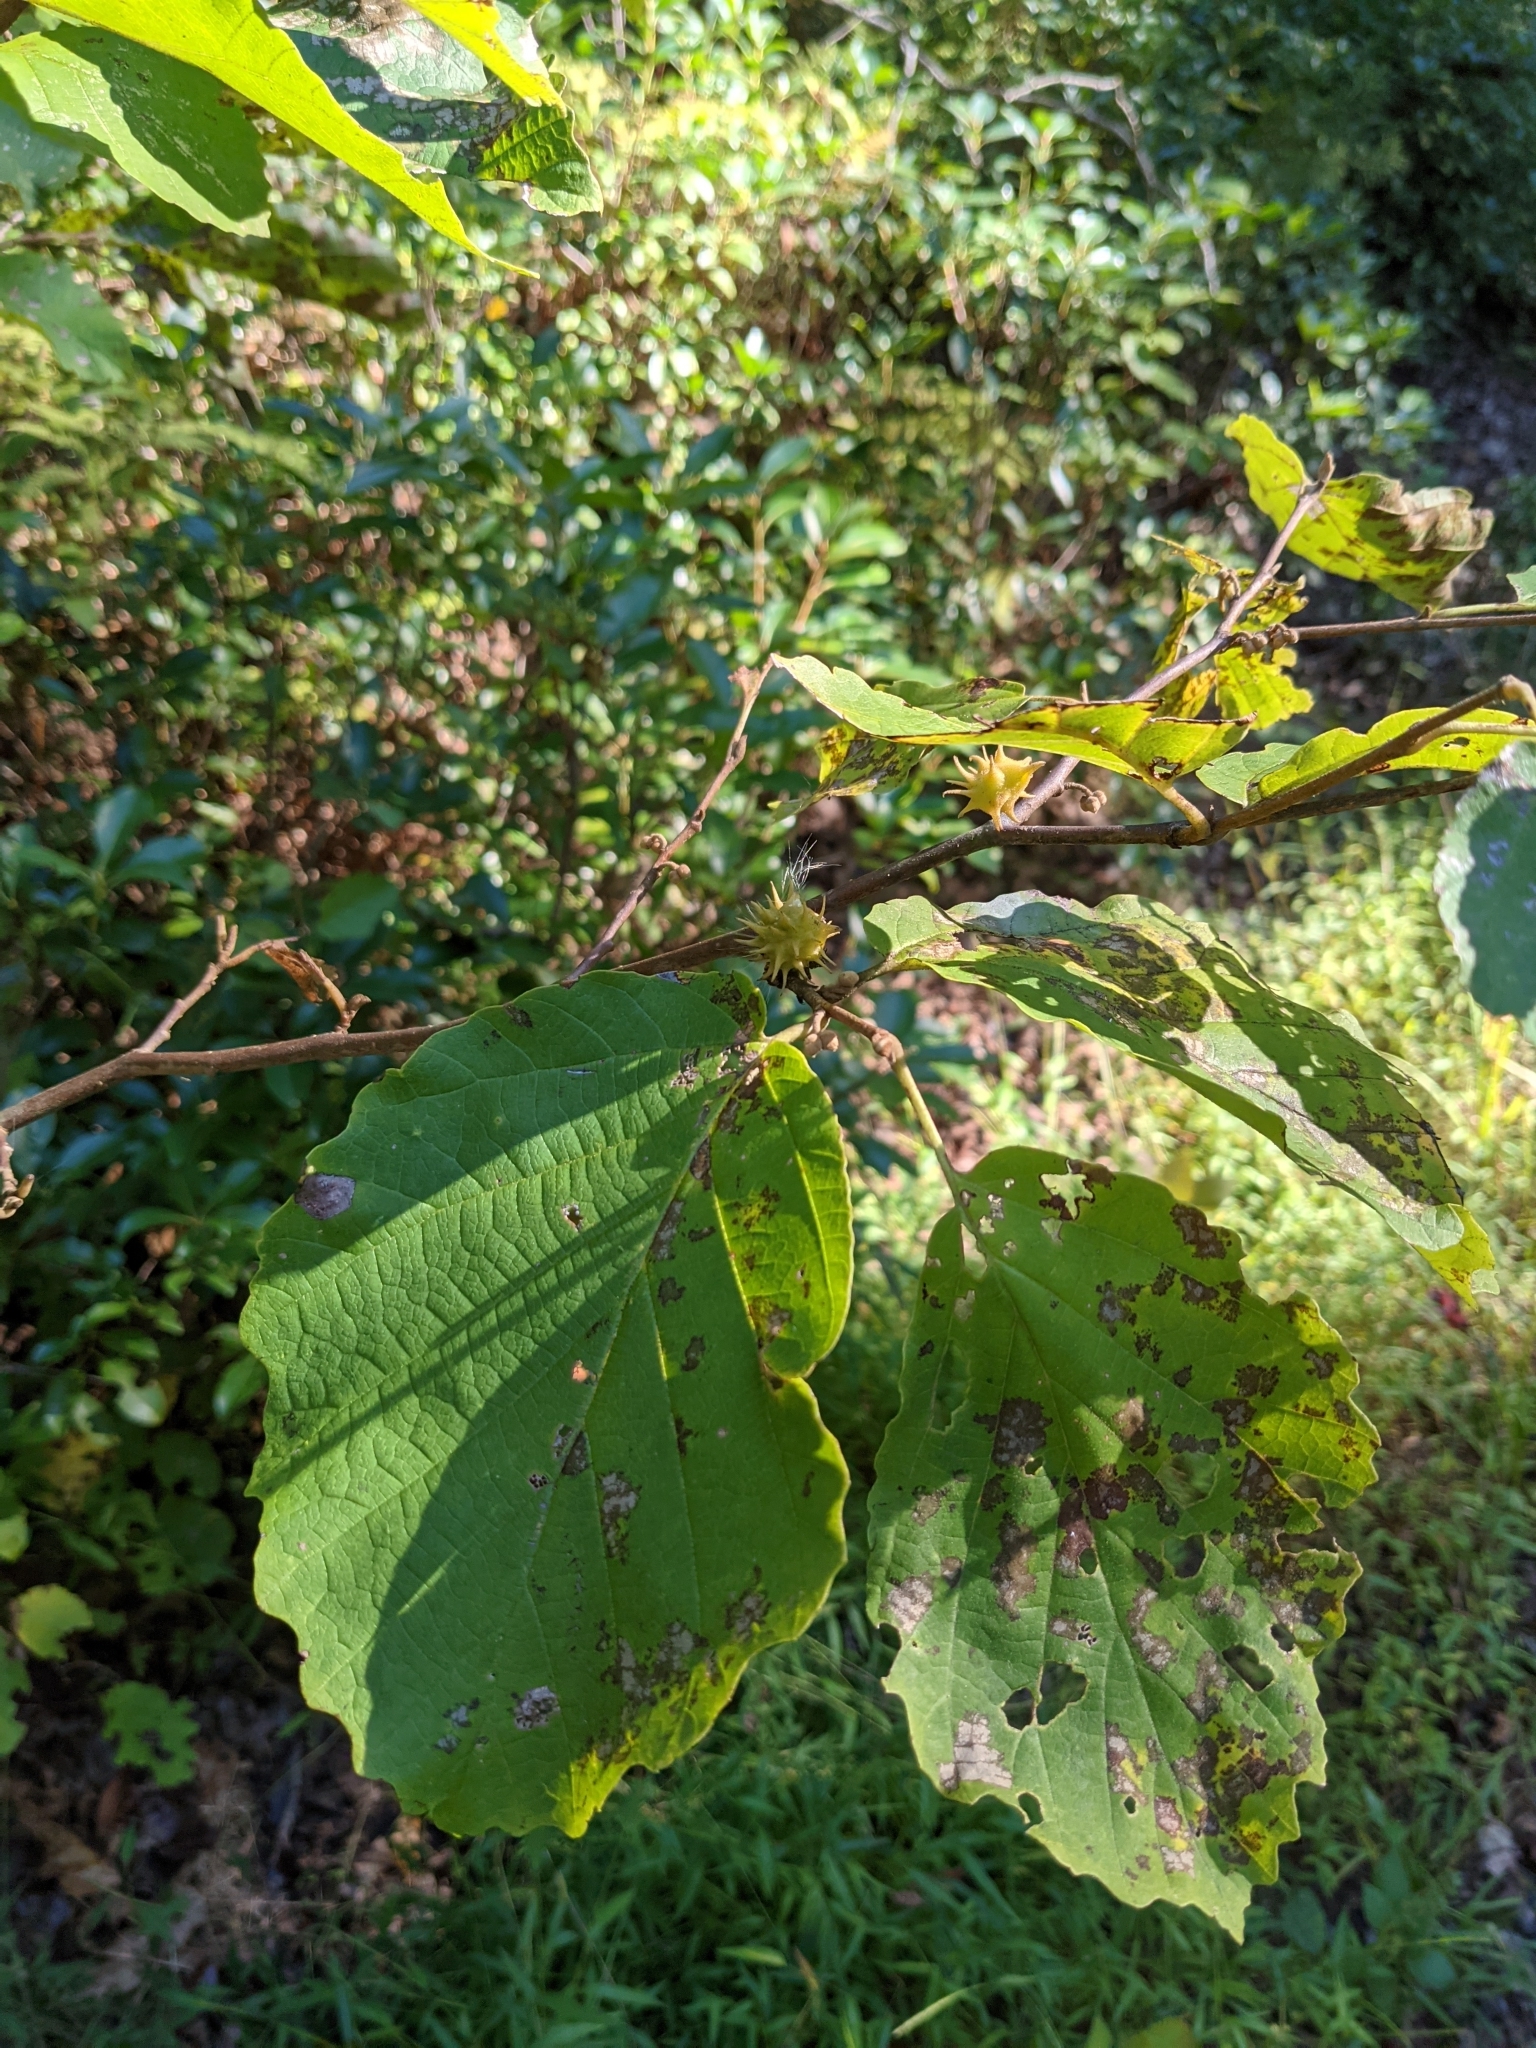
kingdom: Plantae
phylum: Tracheophyta
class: Magnoliopsida
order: Saxifragales
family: Hamamelidaceae
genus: Hamamelis
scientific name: Hamamelis virginiana
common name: Witch-hazel
